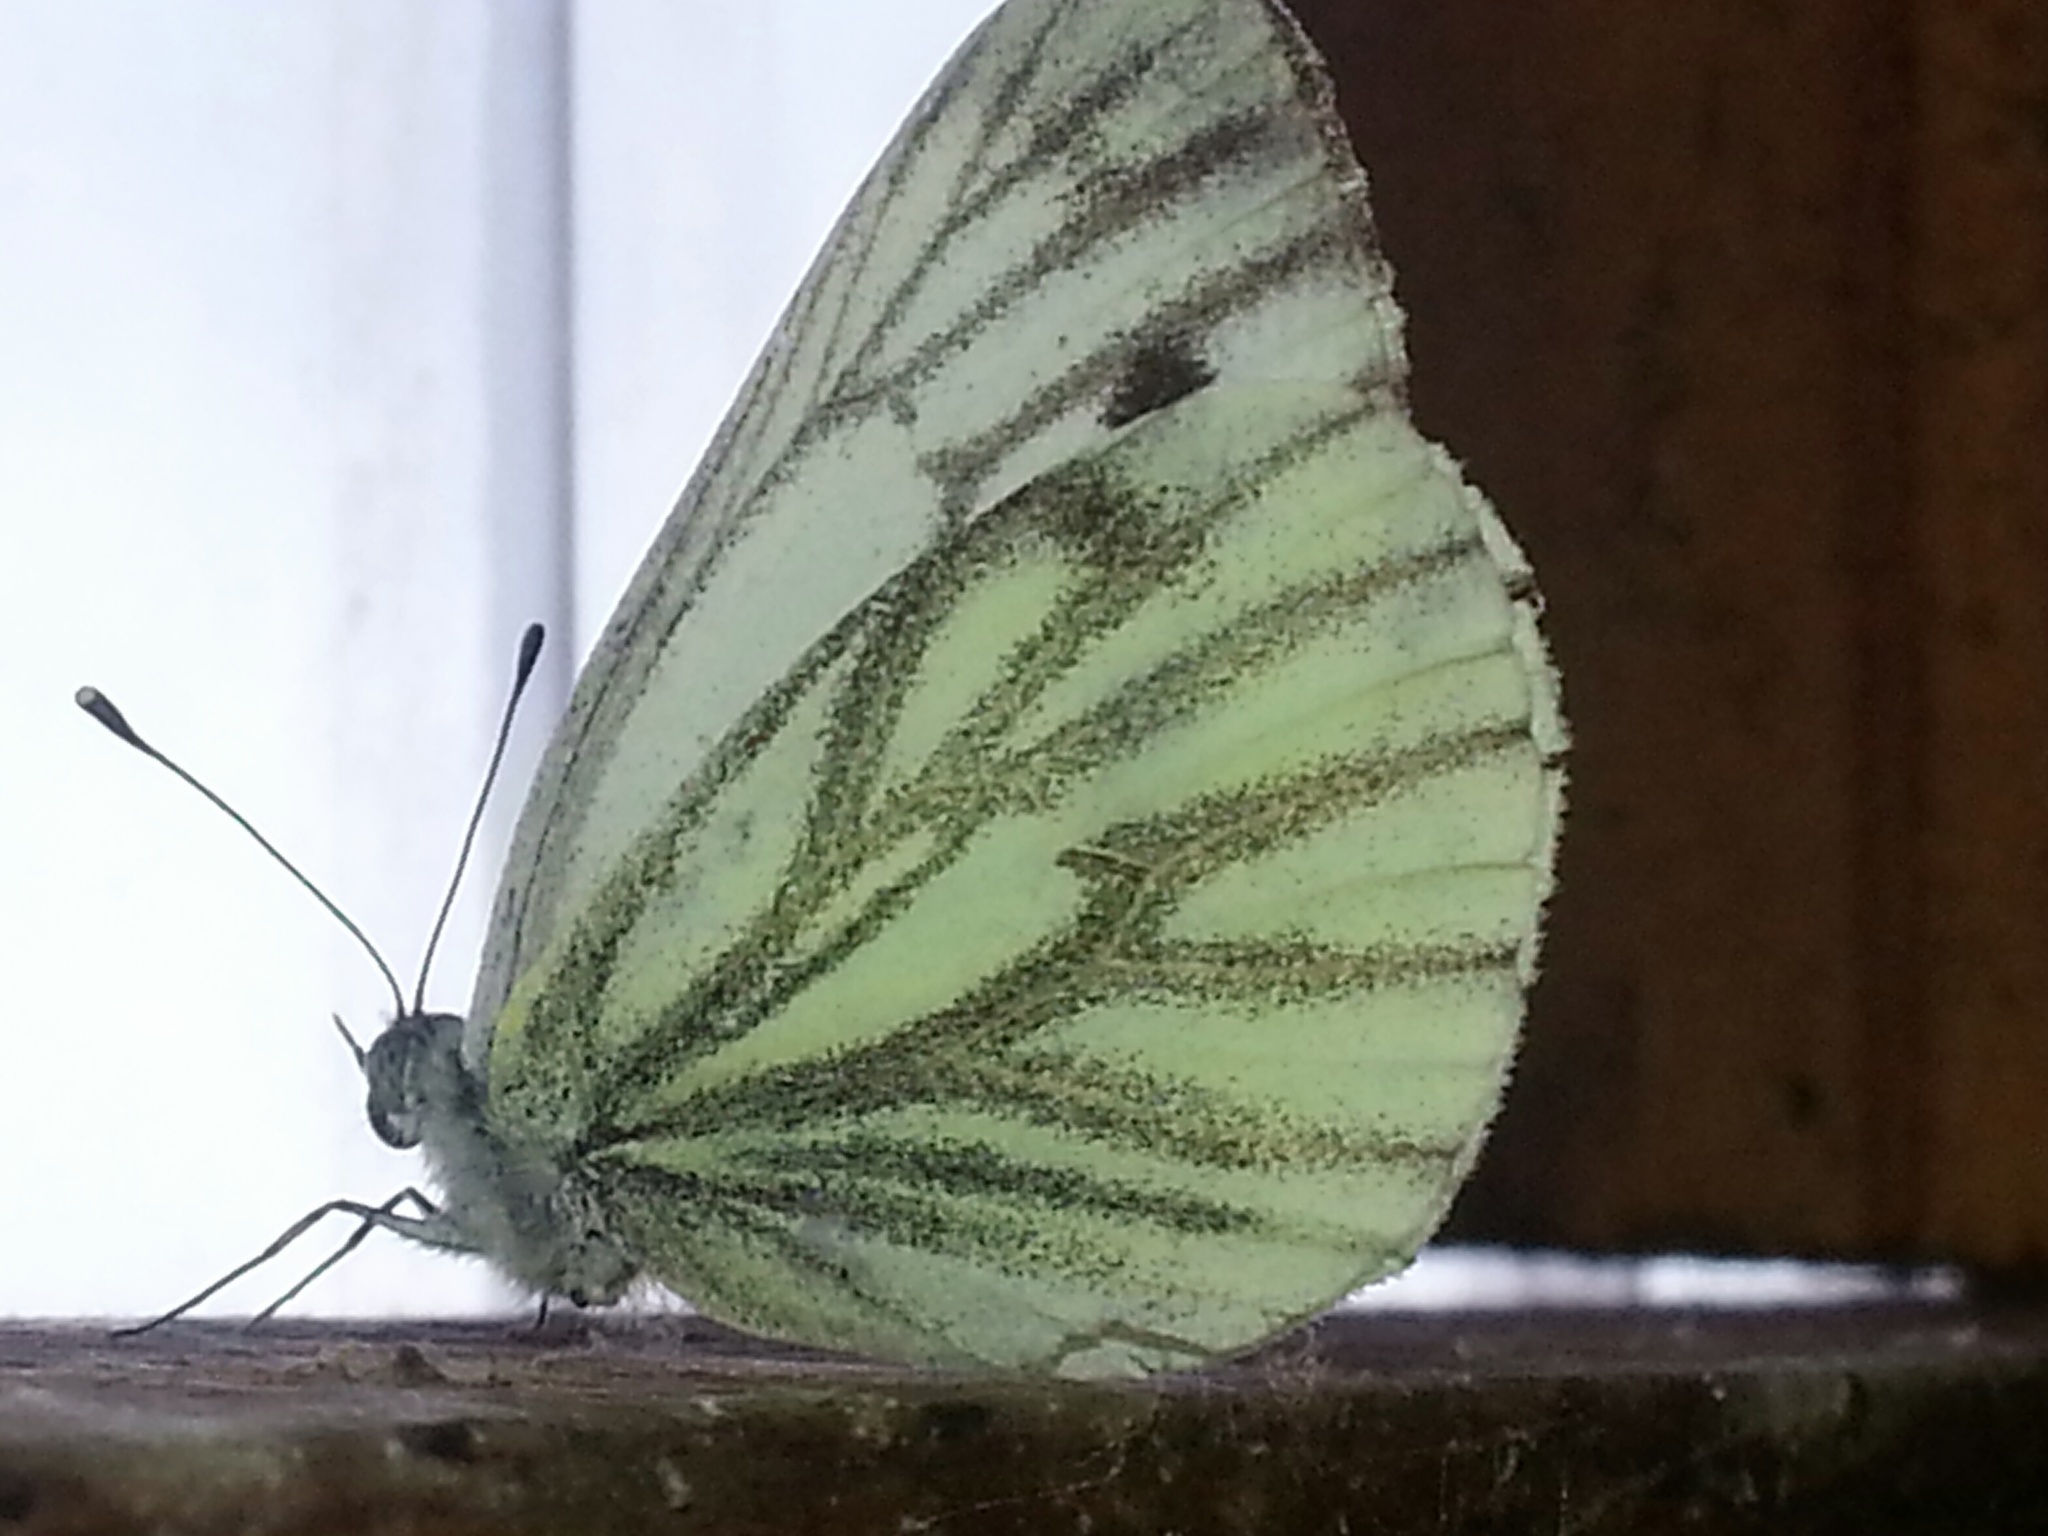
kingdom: Animalia
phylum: Arthropoda
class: Insecta
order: Lepidoptera
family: Pieridae
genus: Pieris
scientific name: Pieris napi
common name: Green-veined white
